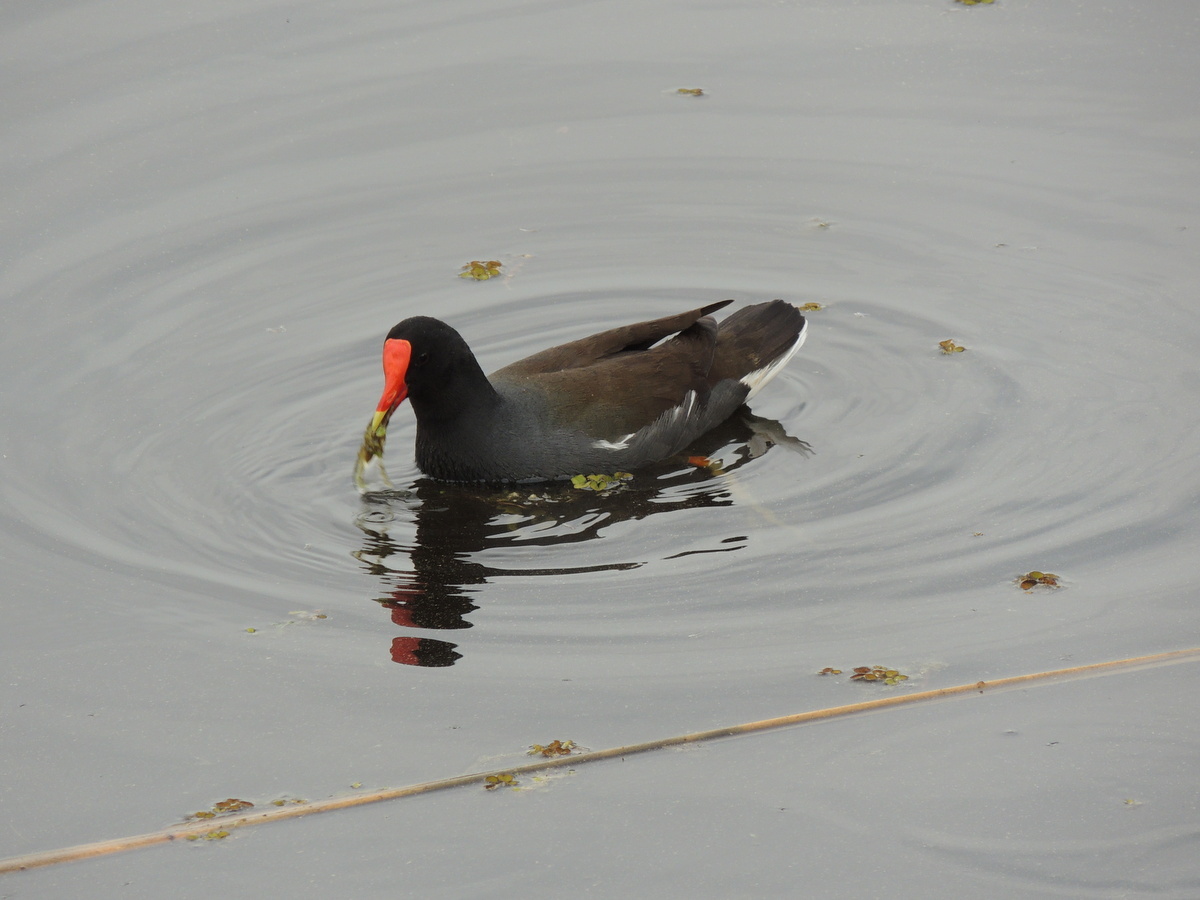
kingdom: Animalia
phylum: Chordata
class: Aves
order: Gruiformes
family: Rallidae
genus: Gallinula
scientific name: Gallinula chloropus
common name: Common moorhen
